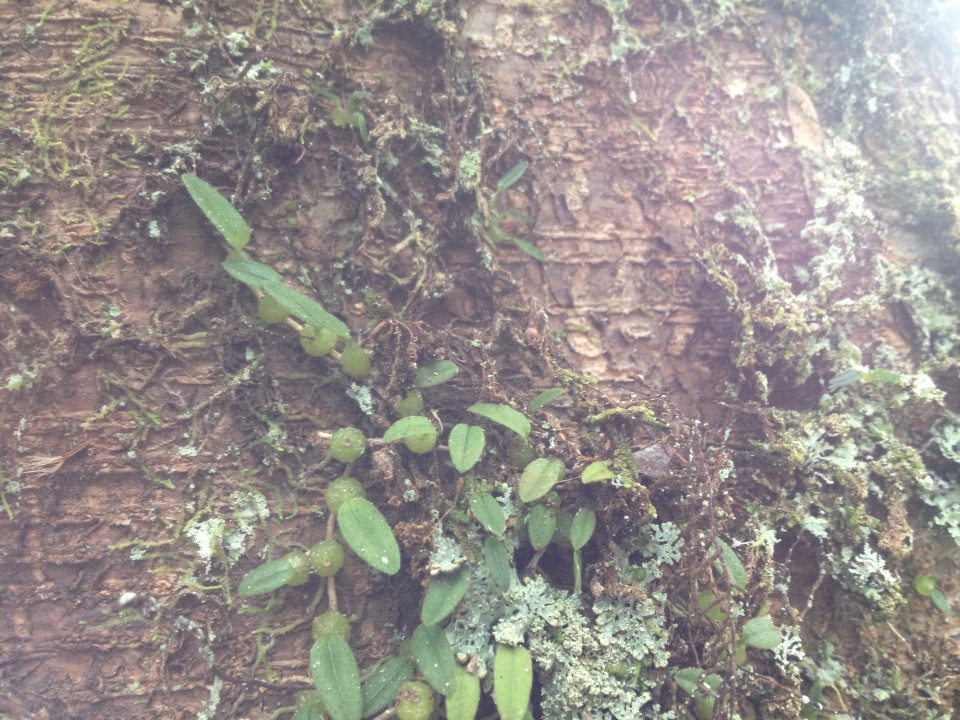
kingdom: Plantae
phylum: Tracheophyta
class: Liliopsida
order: Asparagales
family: Orchidaceae
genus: Bulbophyllum
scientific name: Bulbophyllum pygmaeum
